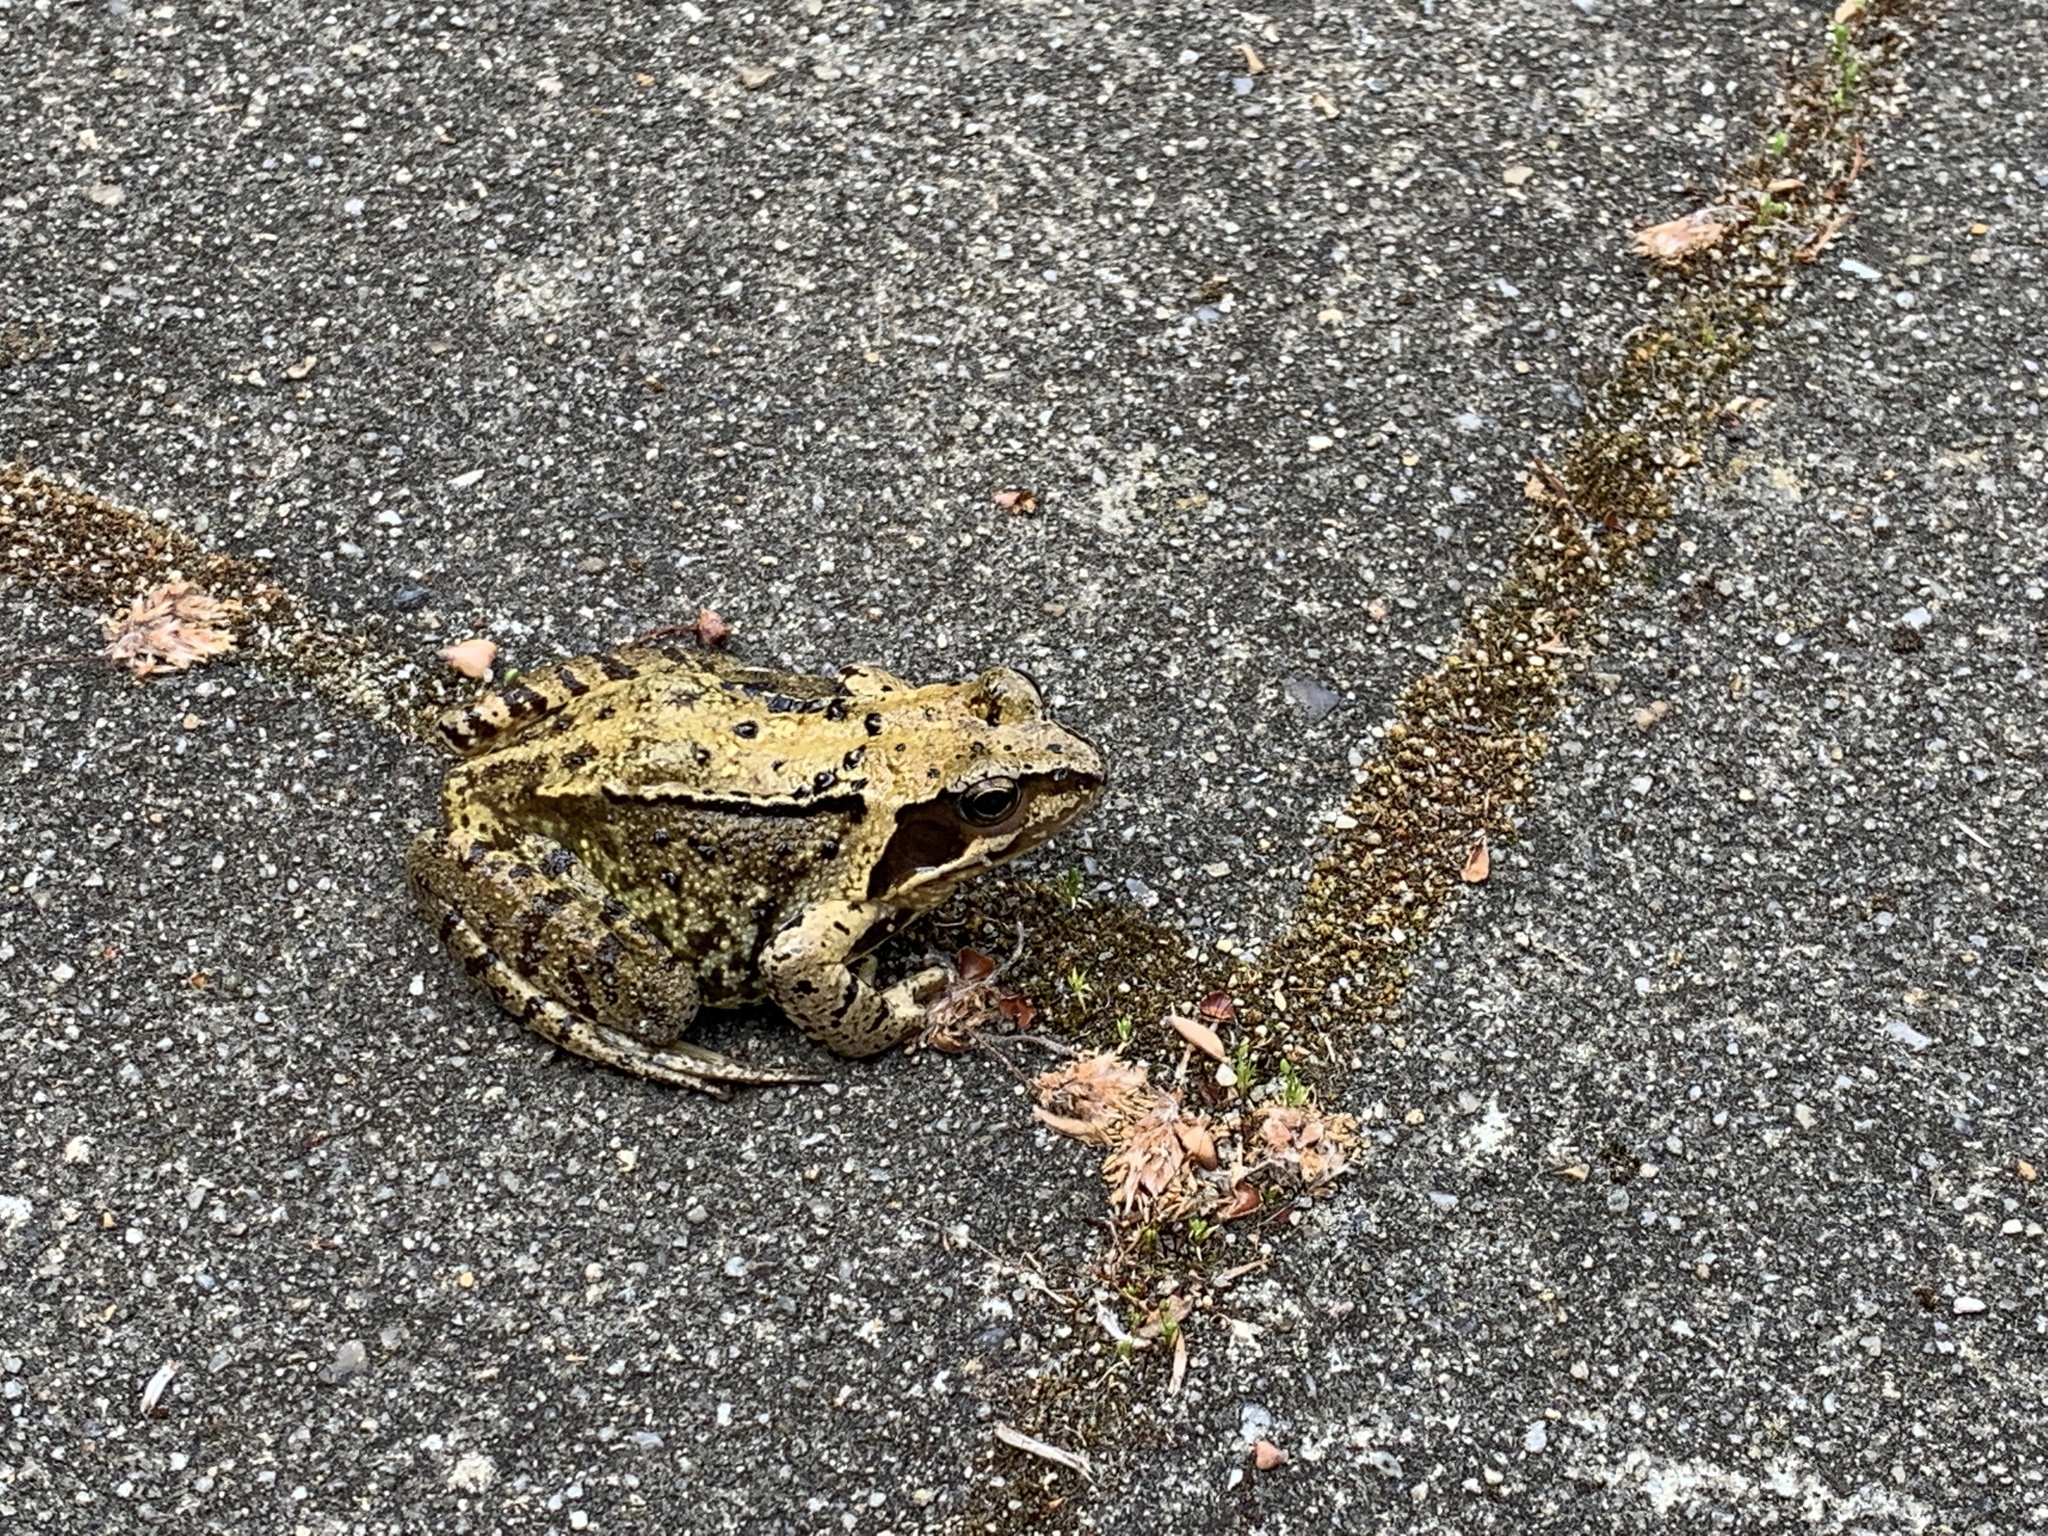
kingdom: Animalia
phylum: Chordata
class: Amphibia
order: Anura
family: Ranidae
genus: Rana
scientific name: Rana temporaria
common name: Common frog
